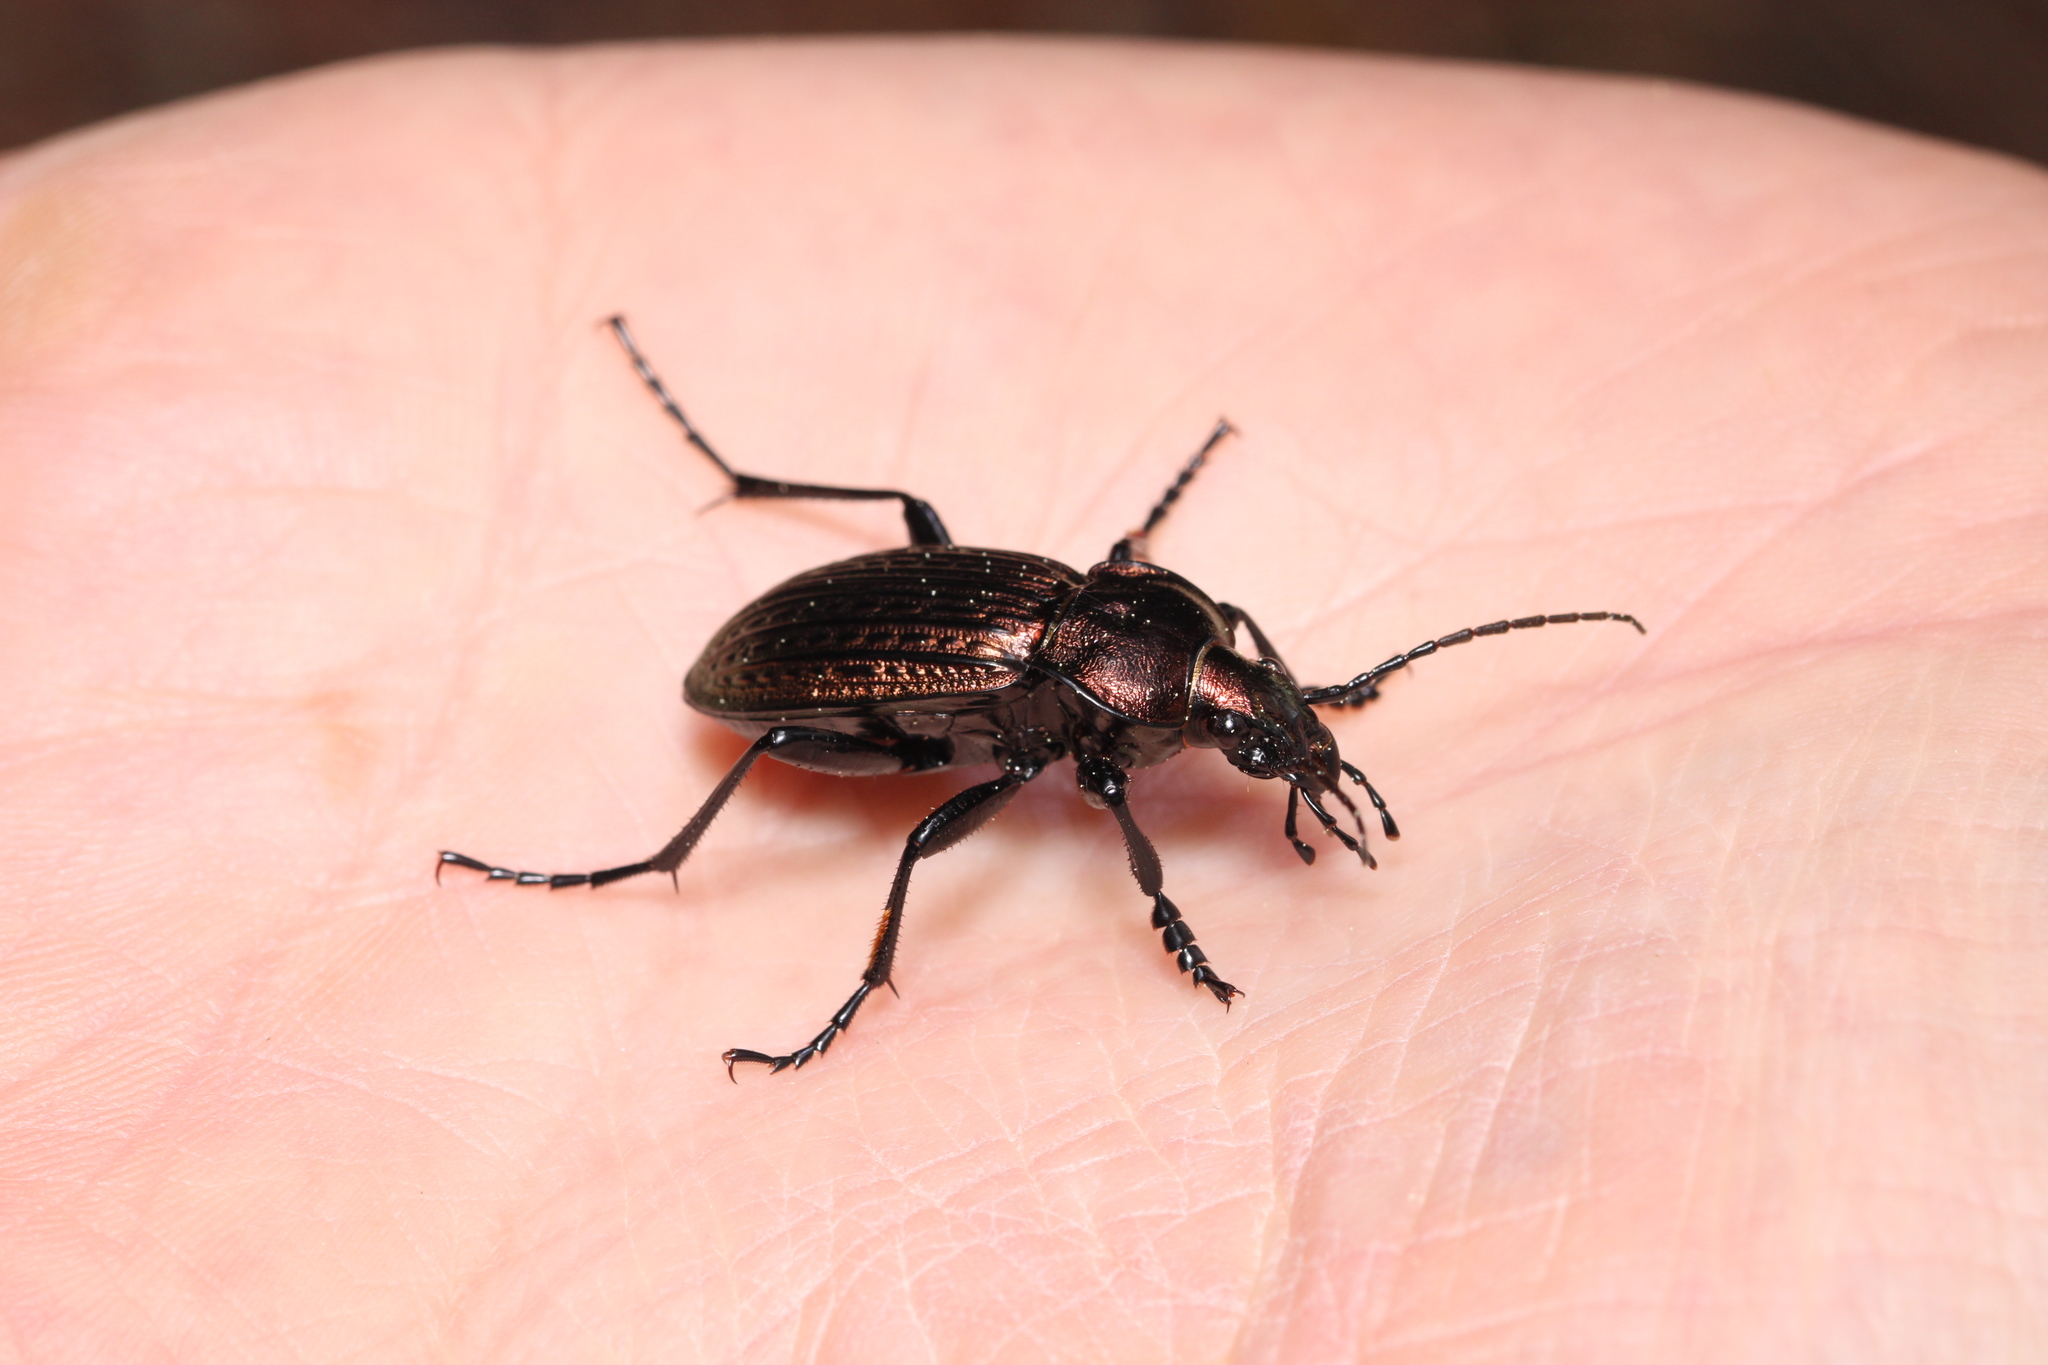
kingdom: Animalia
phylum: Arthropoda
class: Insecta
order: Coleoptera
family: Carabidae
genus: Carabus
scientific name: Carabus ulrichii
